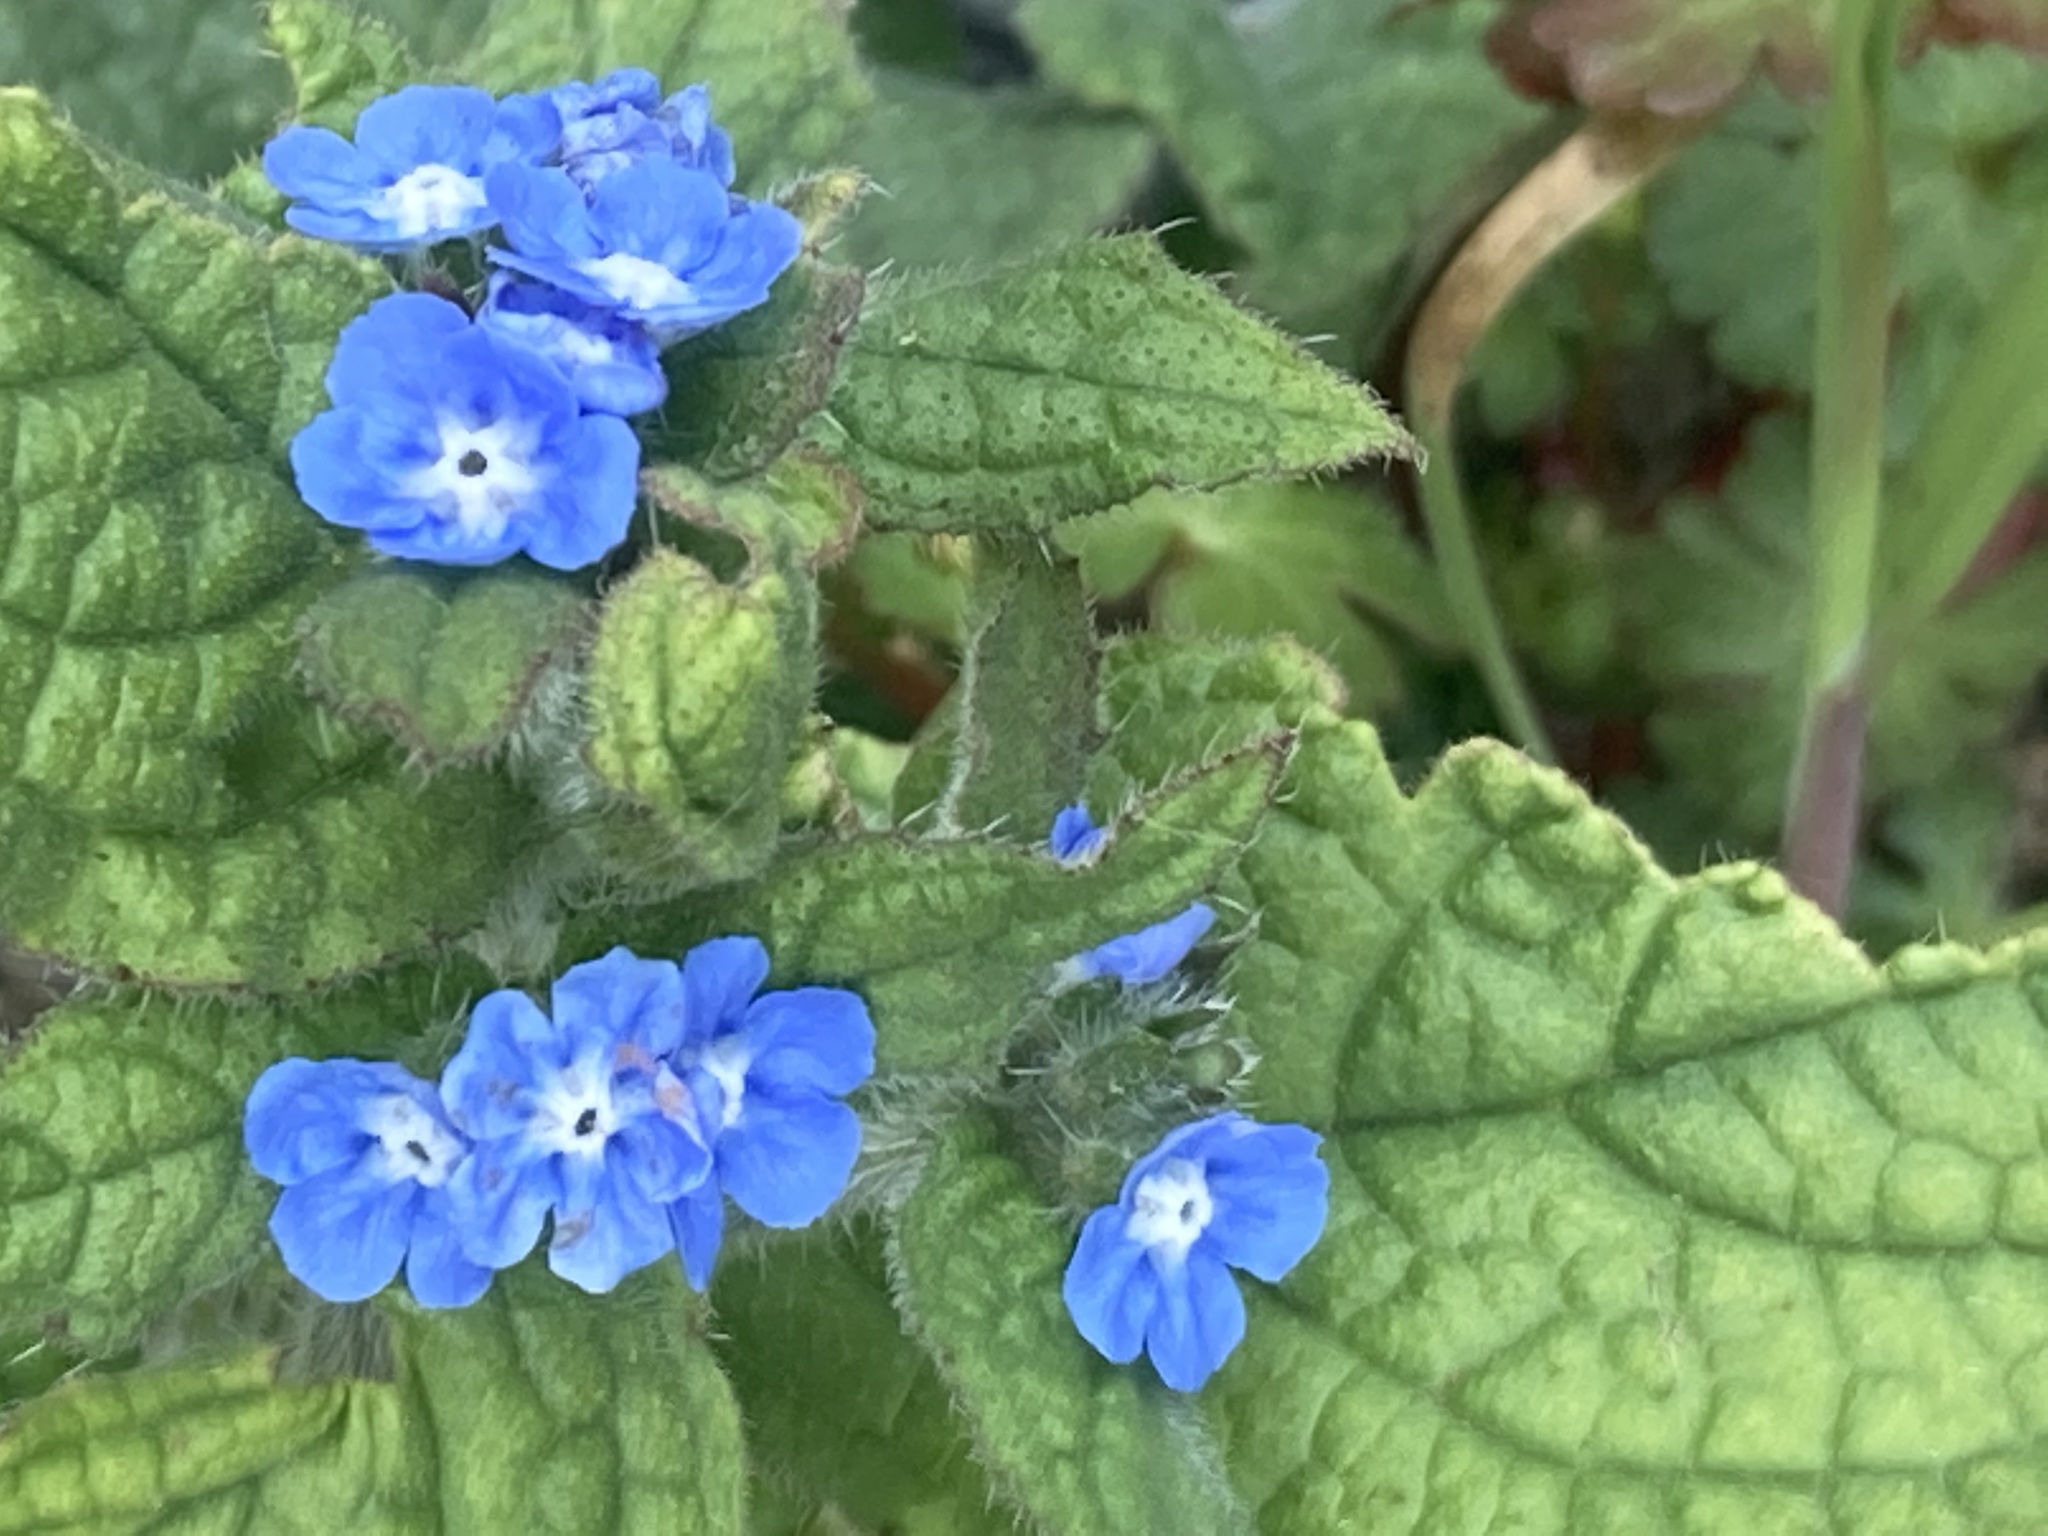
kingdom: Plantae
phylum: Tracheophyta
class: Magnoliopsida
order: Boraginales
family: Boraginaceae
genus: Pentaglottis
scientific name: Pentaglottis sempervirens
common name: Green alkanet
